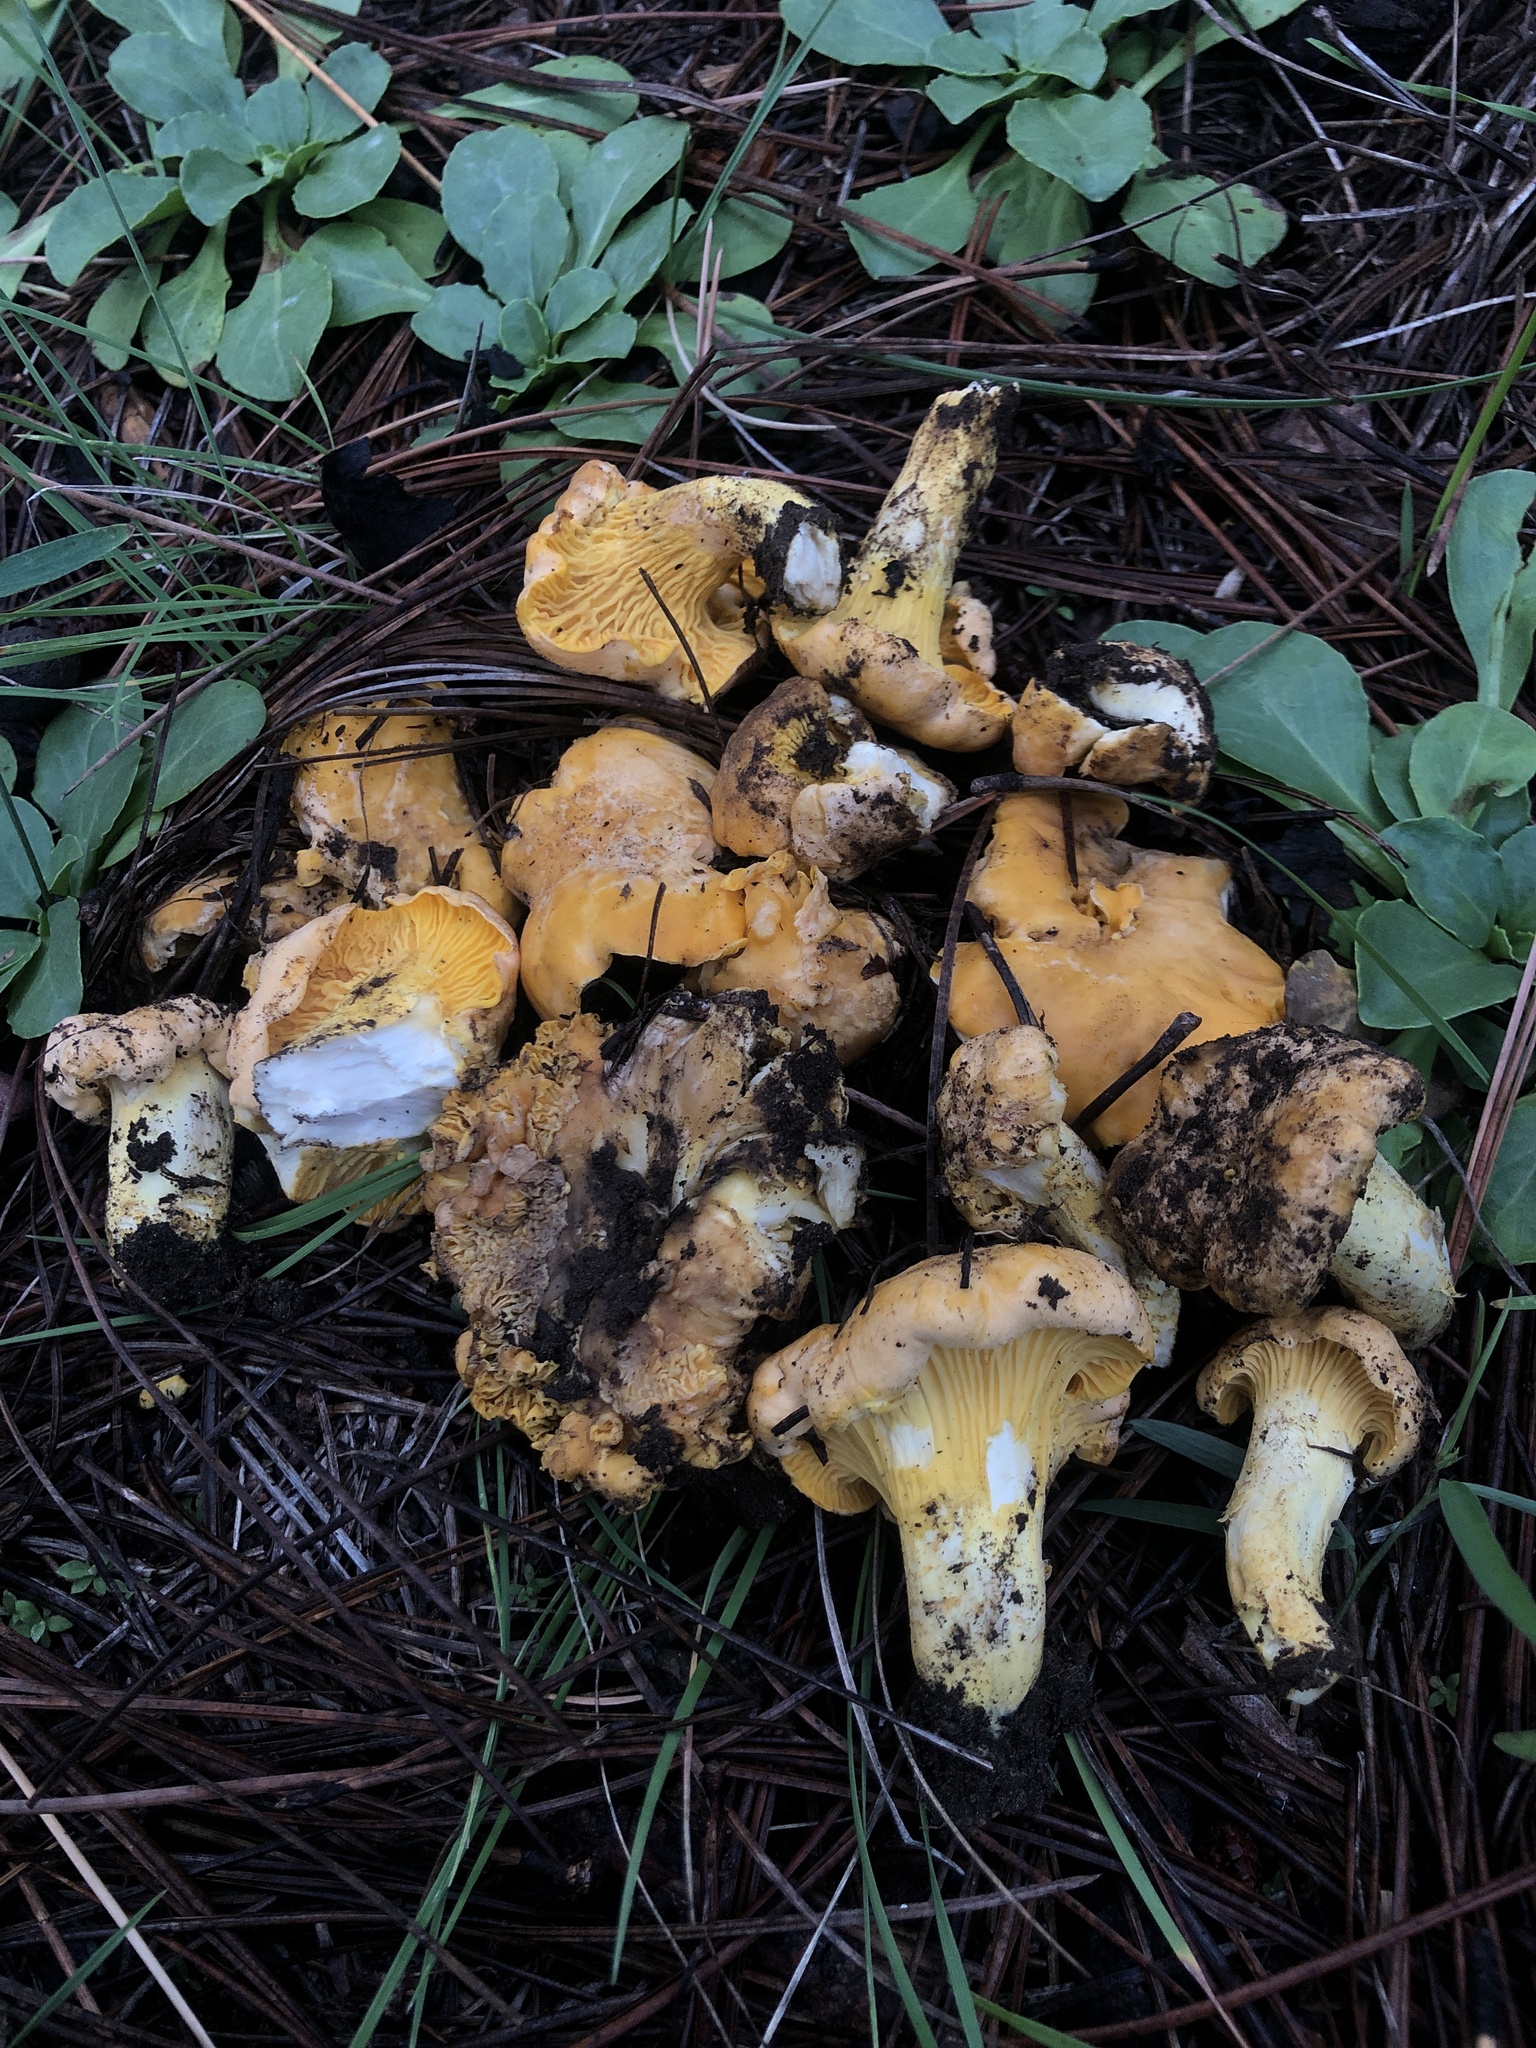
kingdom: Fungi
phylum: Basidiomycota
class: Agaricomycetes
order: Cantharellales
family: Hydnaceae
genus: Cantharellus
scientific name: Cantharellus roseocanus
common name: Rainbow chanterelle
